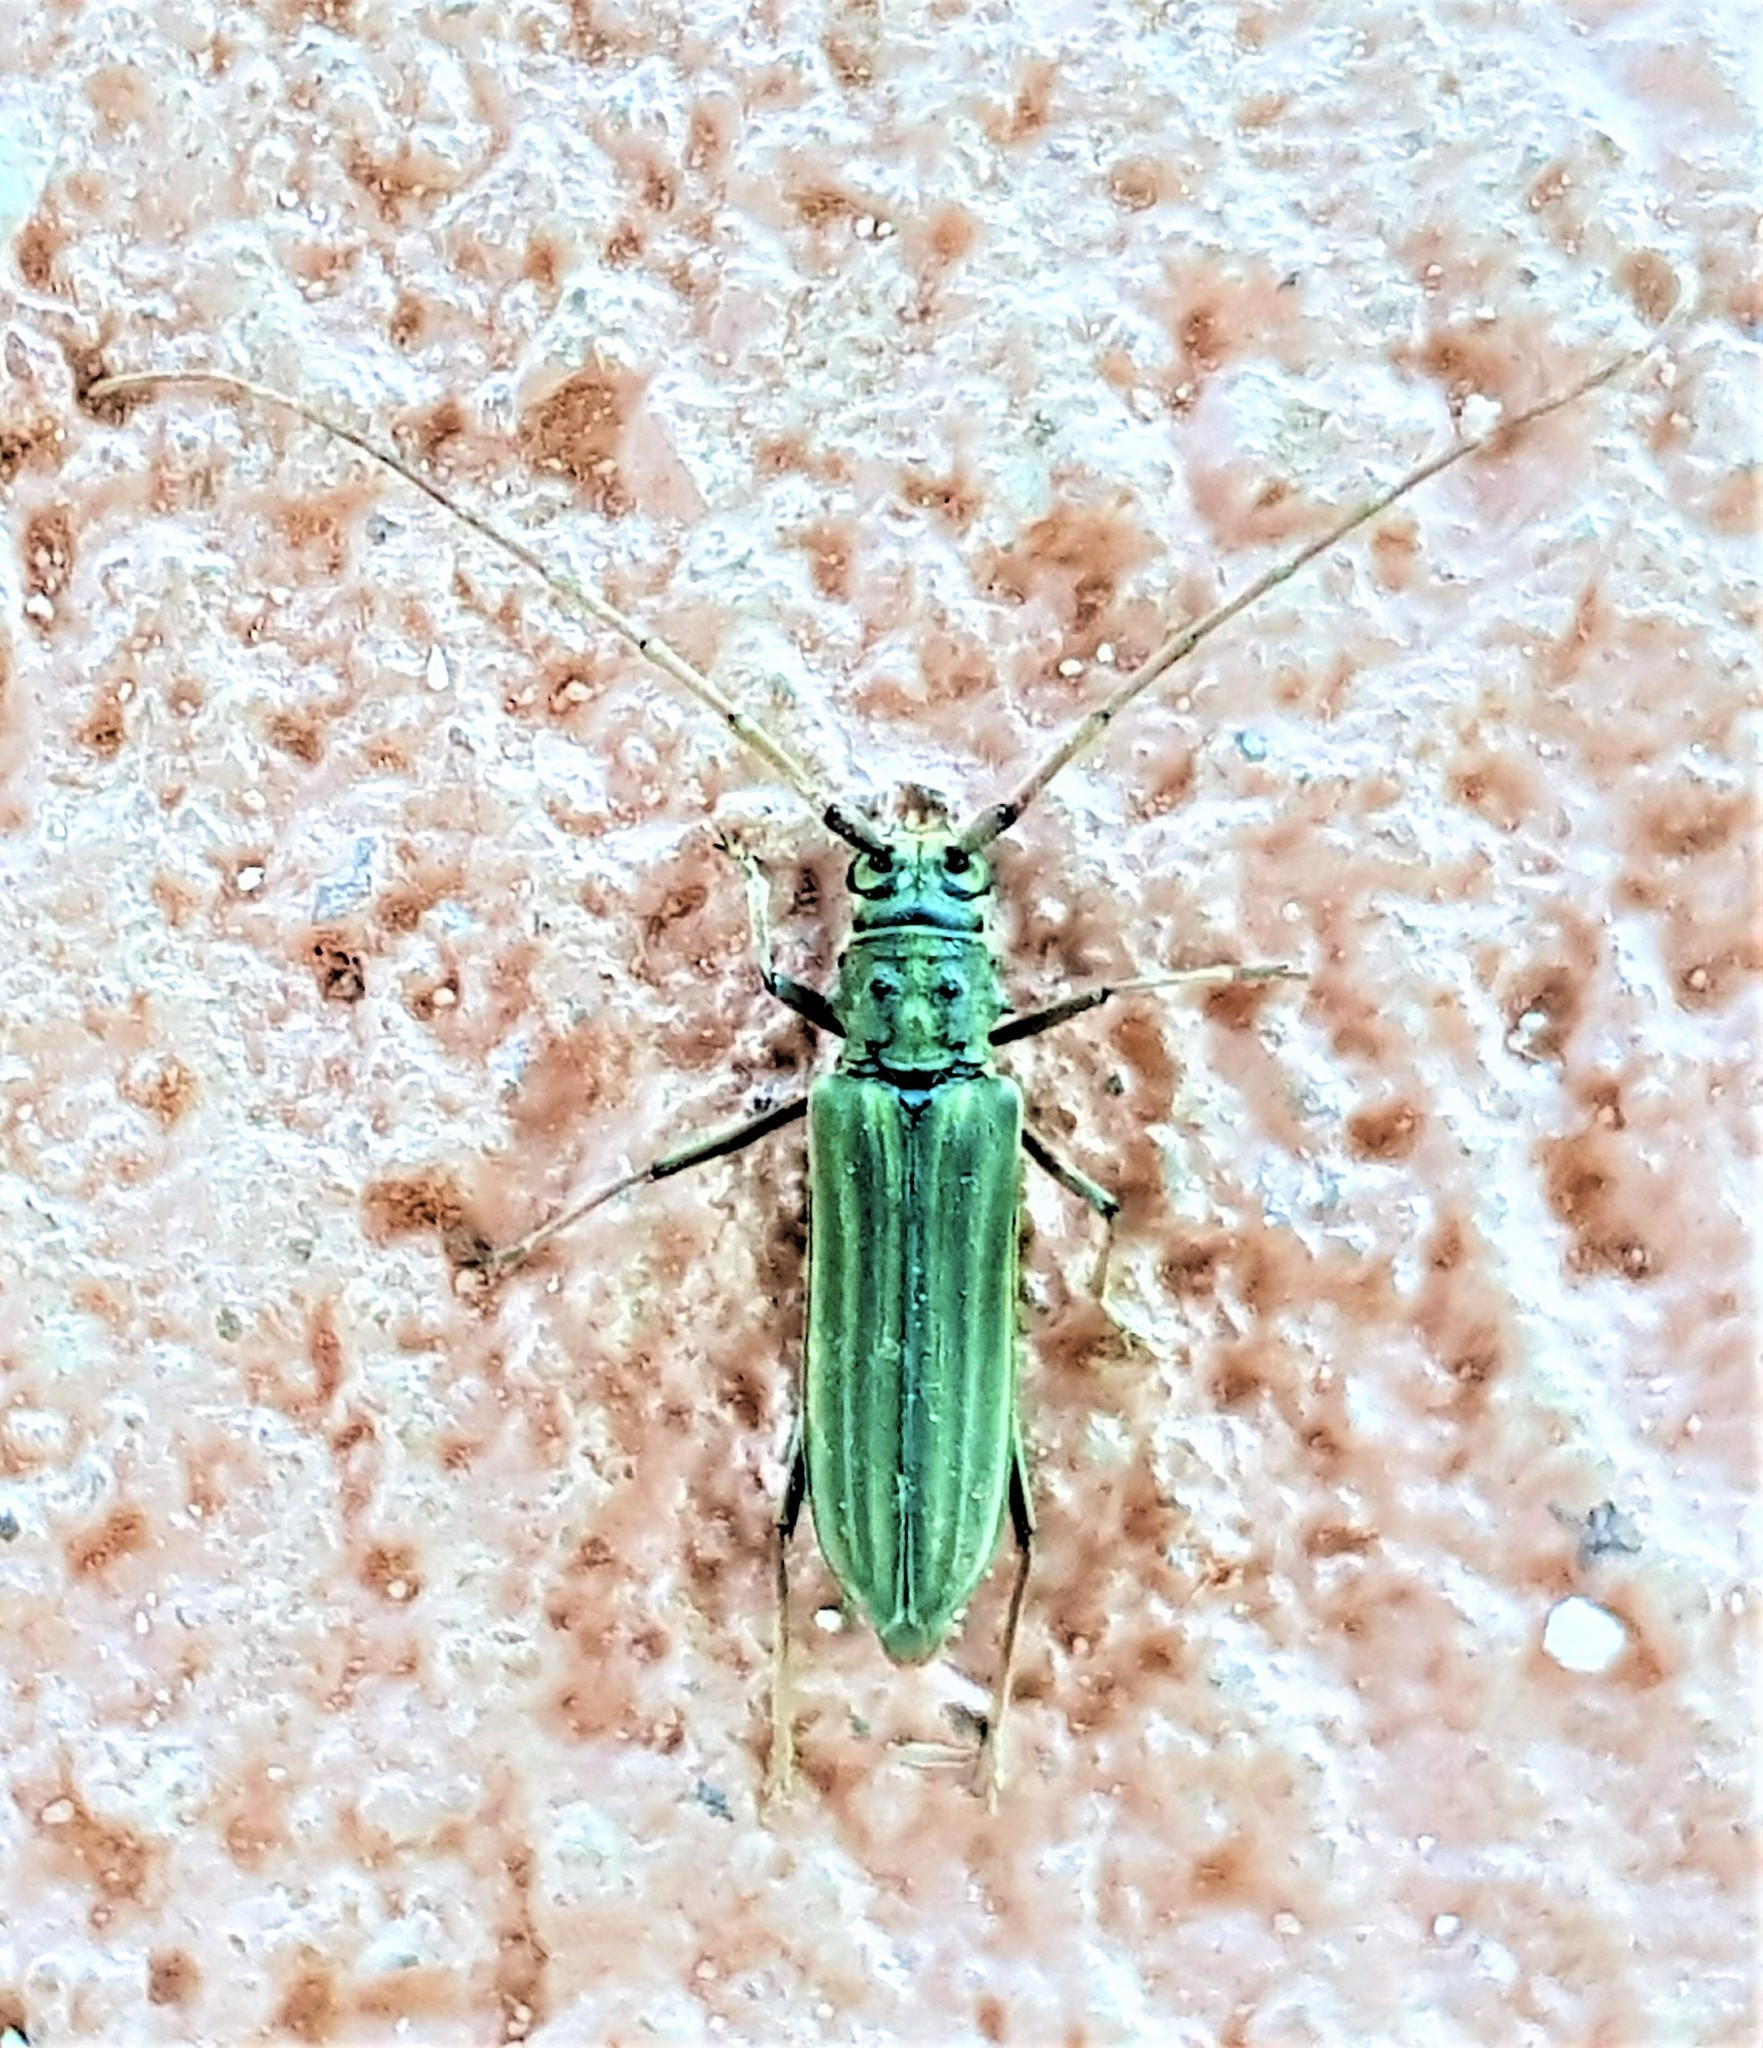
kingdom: Animalia
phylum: Arthropoda
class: Insecta
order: Coleoptera
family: Cerambycidae
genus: Opades
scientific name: Opades costipennis
